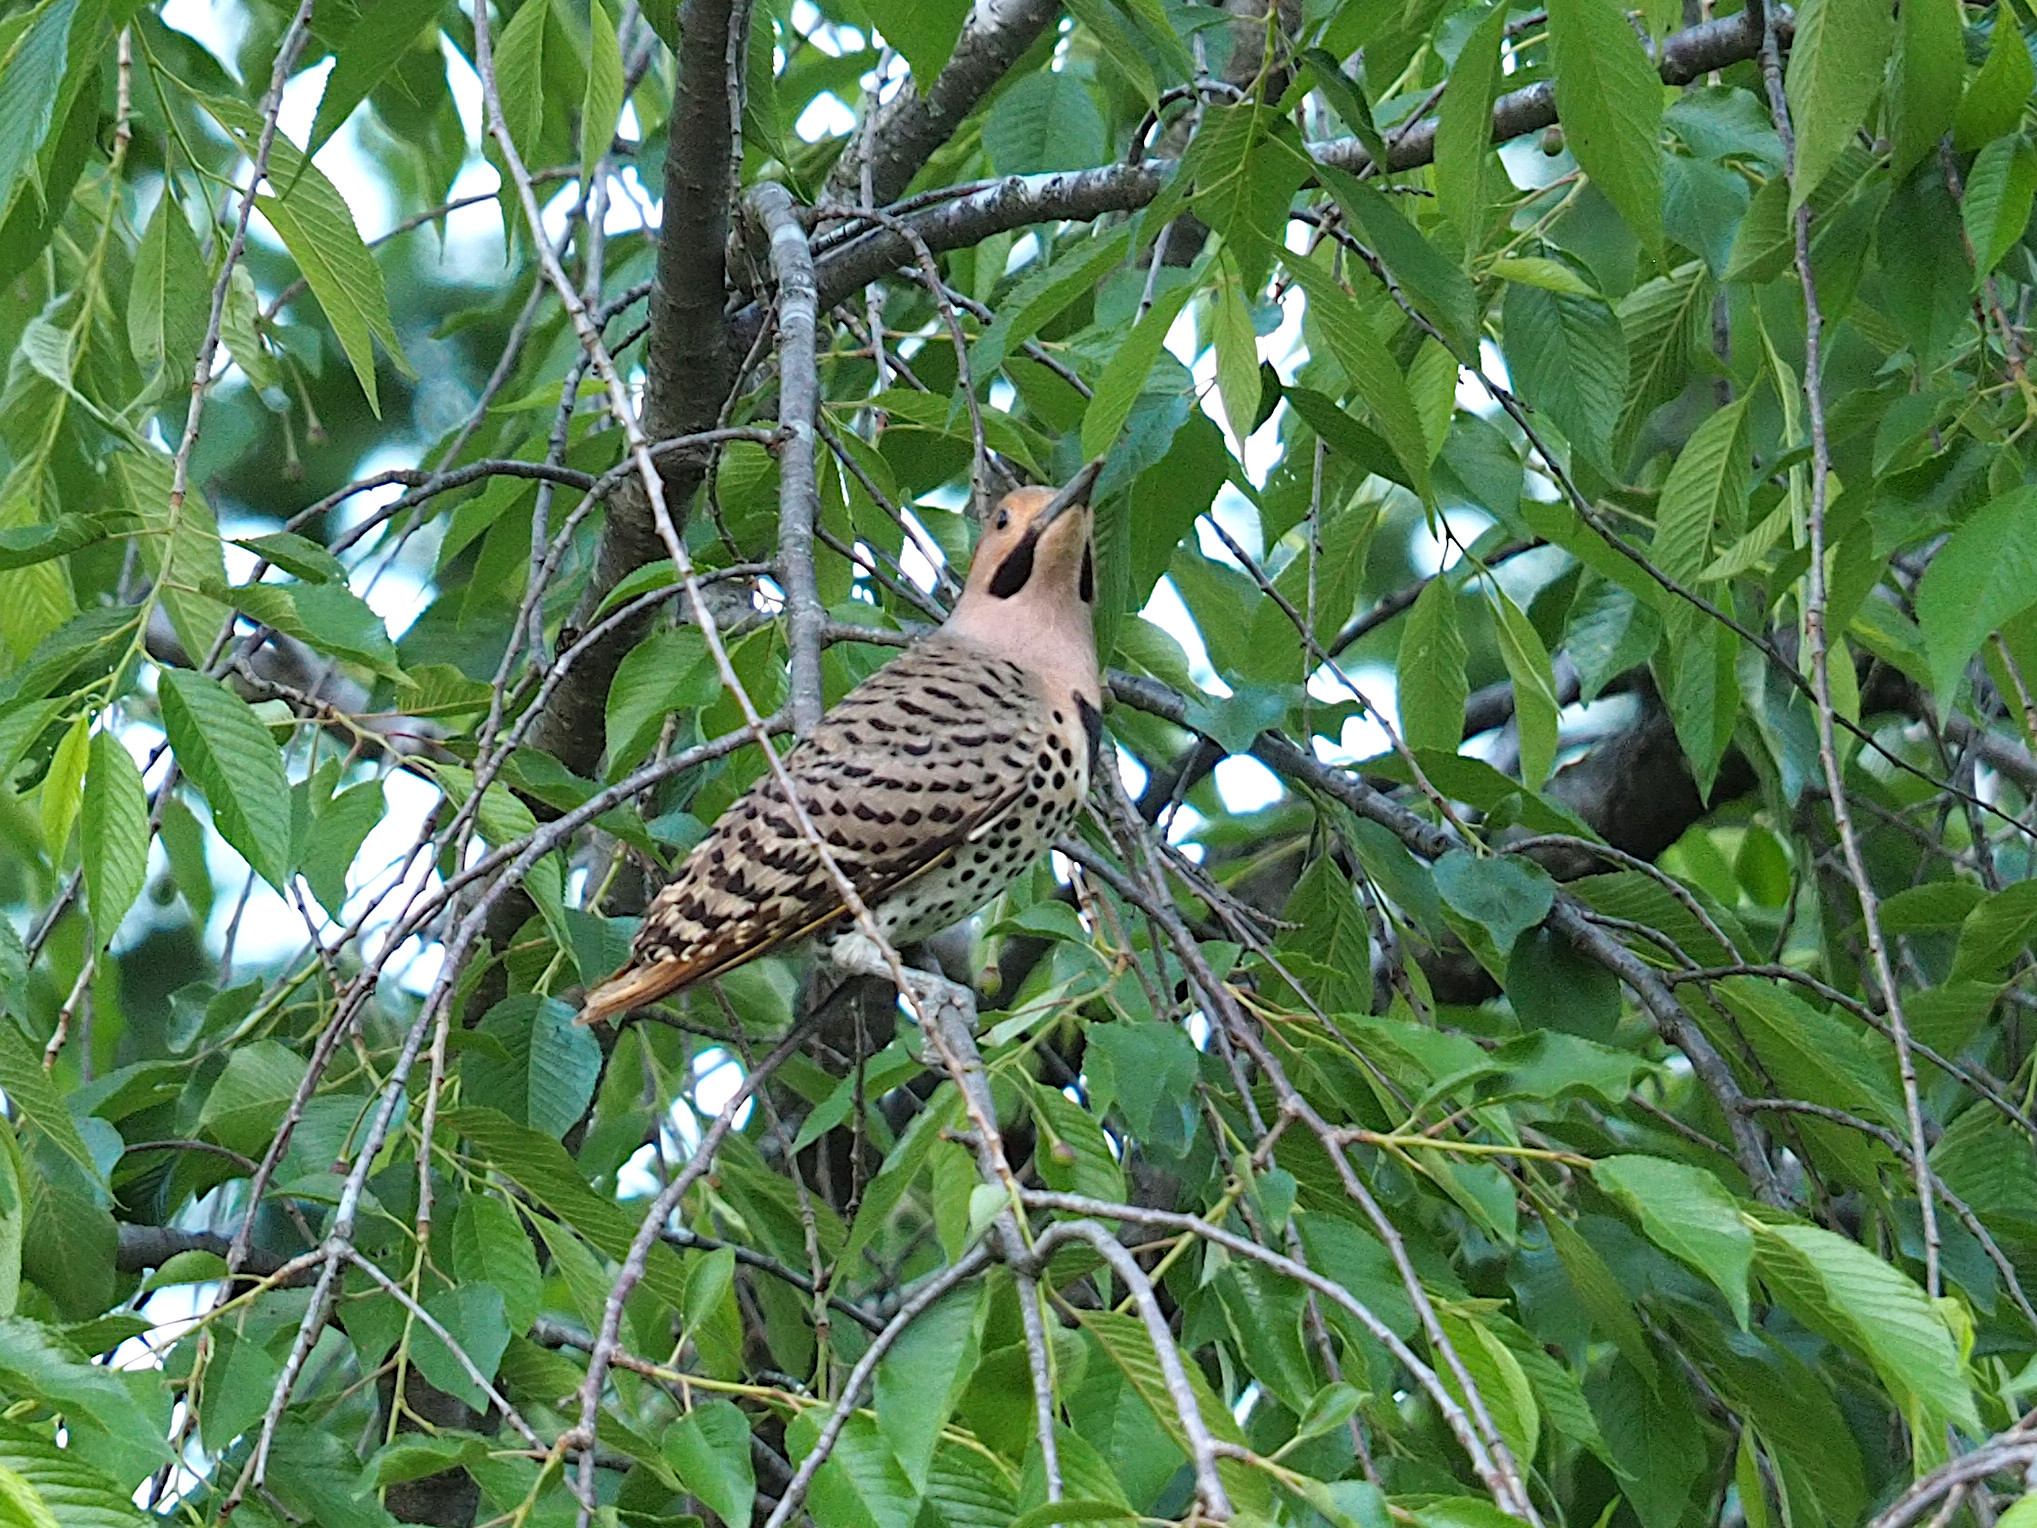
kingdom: Animalia
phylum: Chordata
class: Aves
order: Piciformes
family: Picidae
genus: Colaptes
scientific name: Colaptes auratus
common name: Northern flicker
